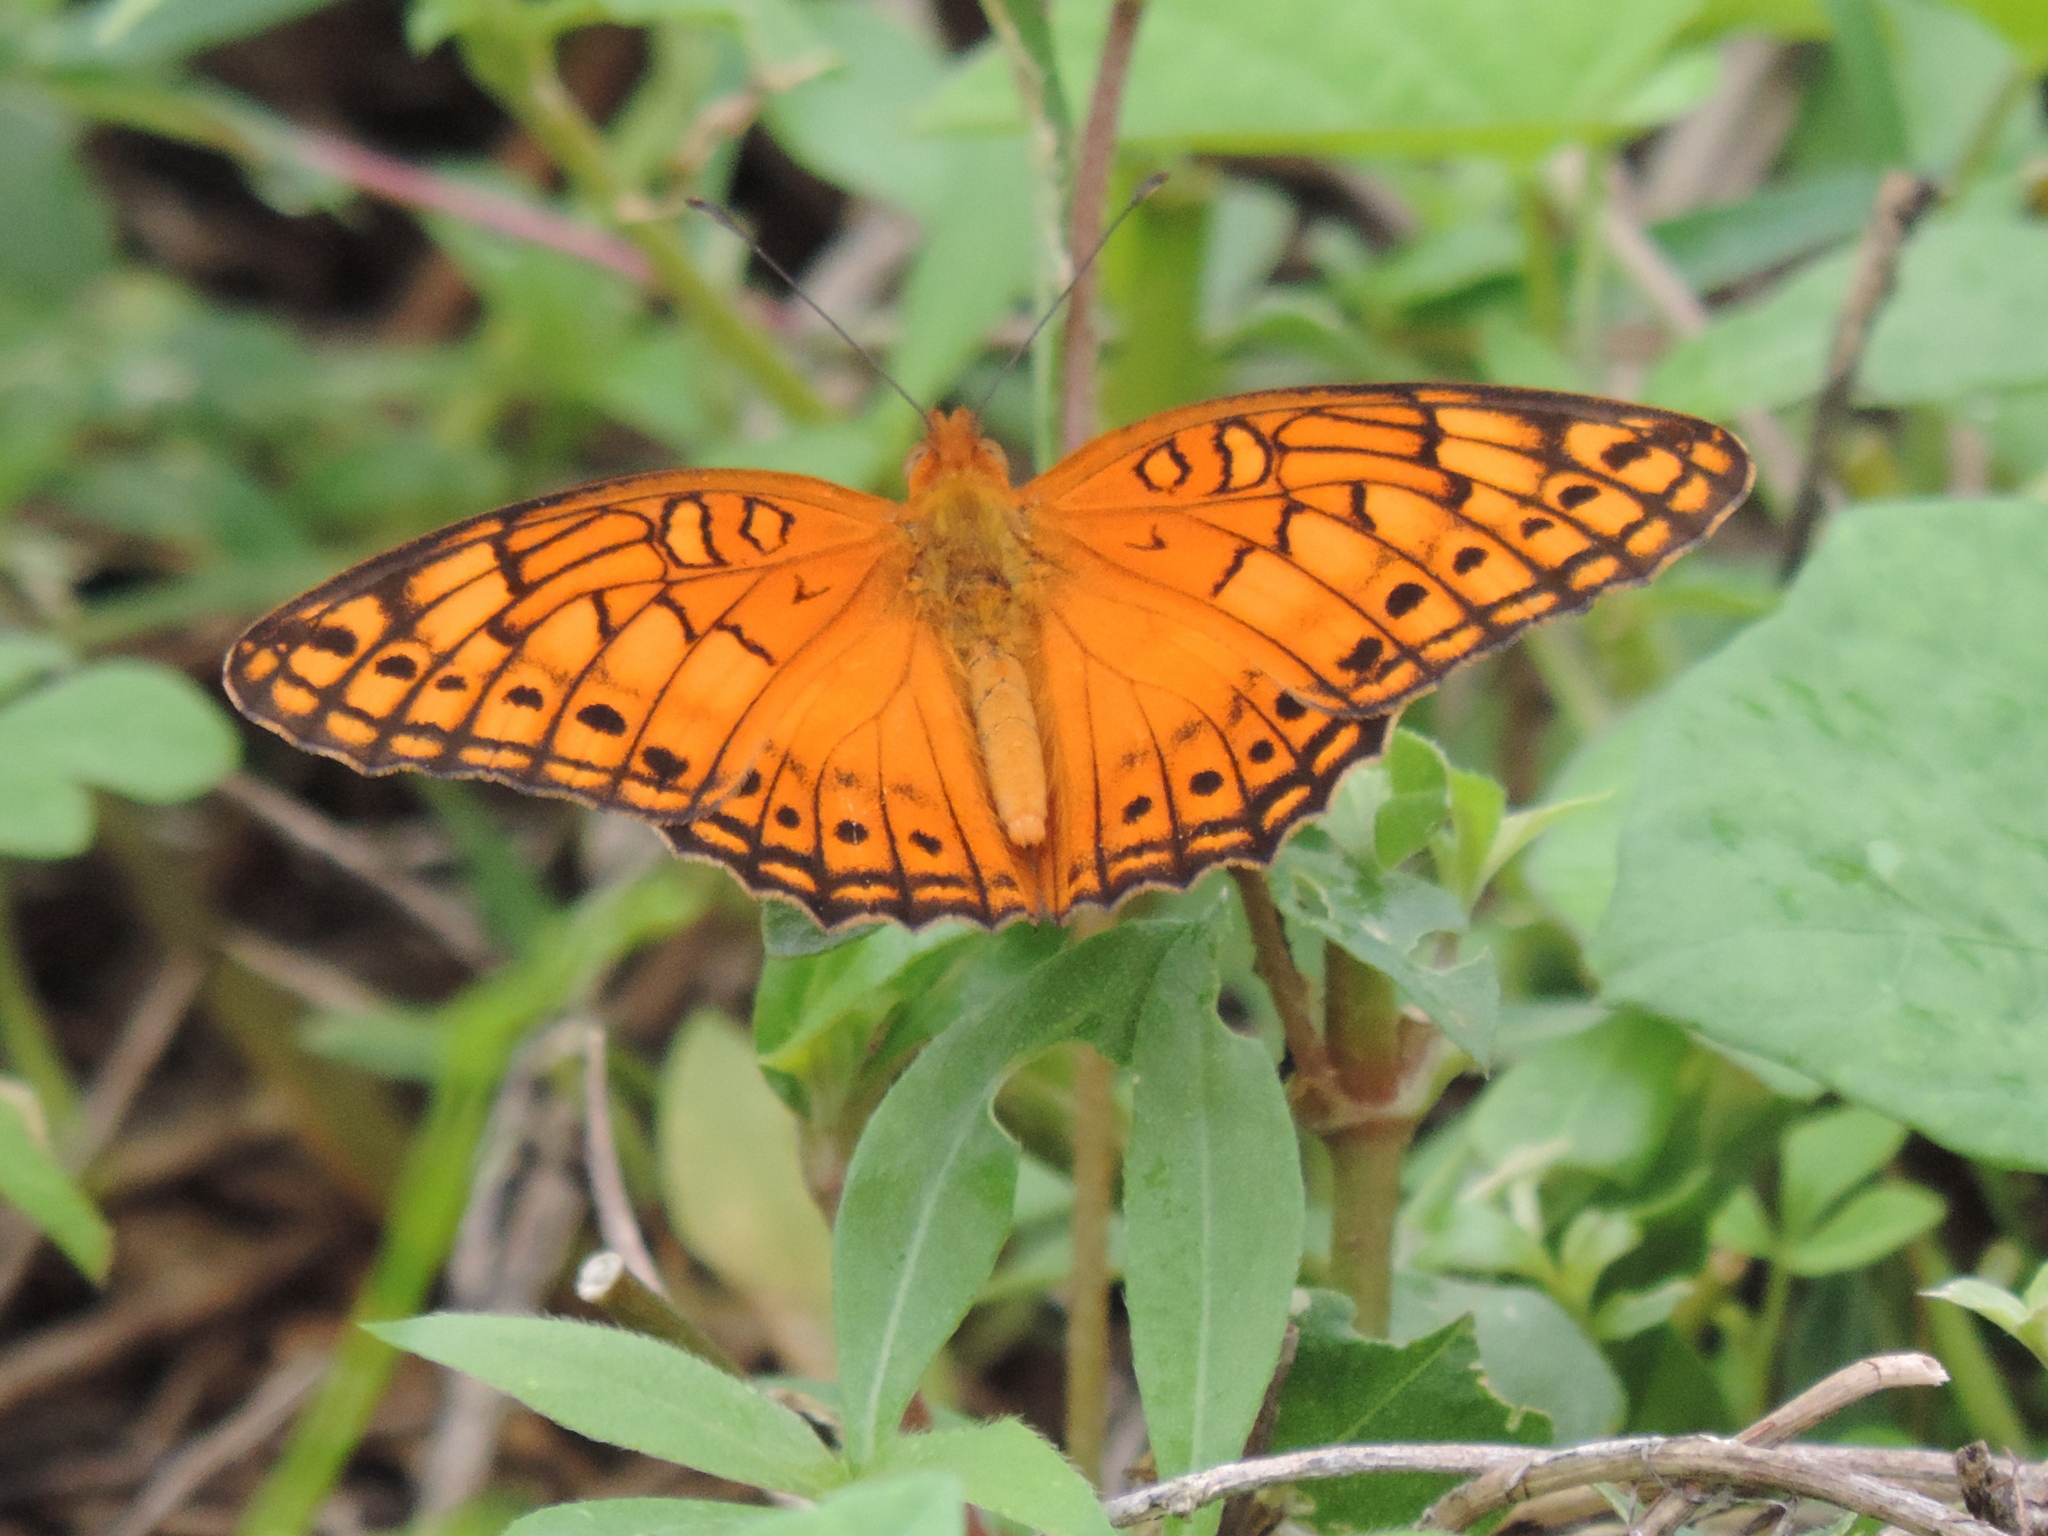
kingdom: Animalia
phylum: Arthropoda
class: Insecta
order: Lepidoptera
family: Nymphalidae
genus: Euptoieta
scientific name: Euptoieta hegesia
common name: Mexican fritillary
